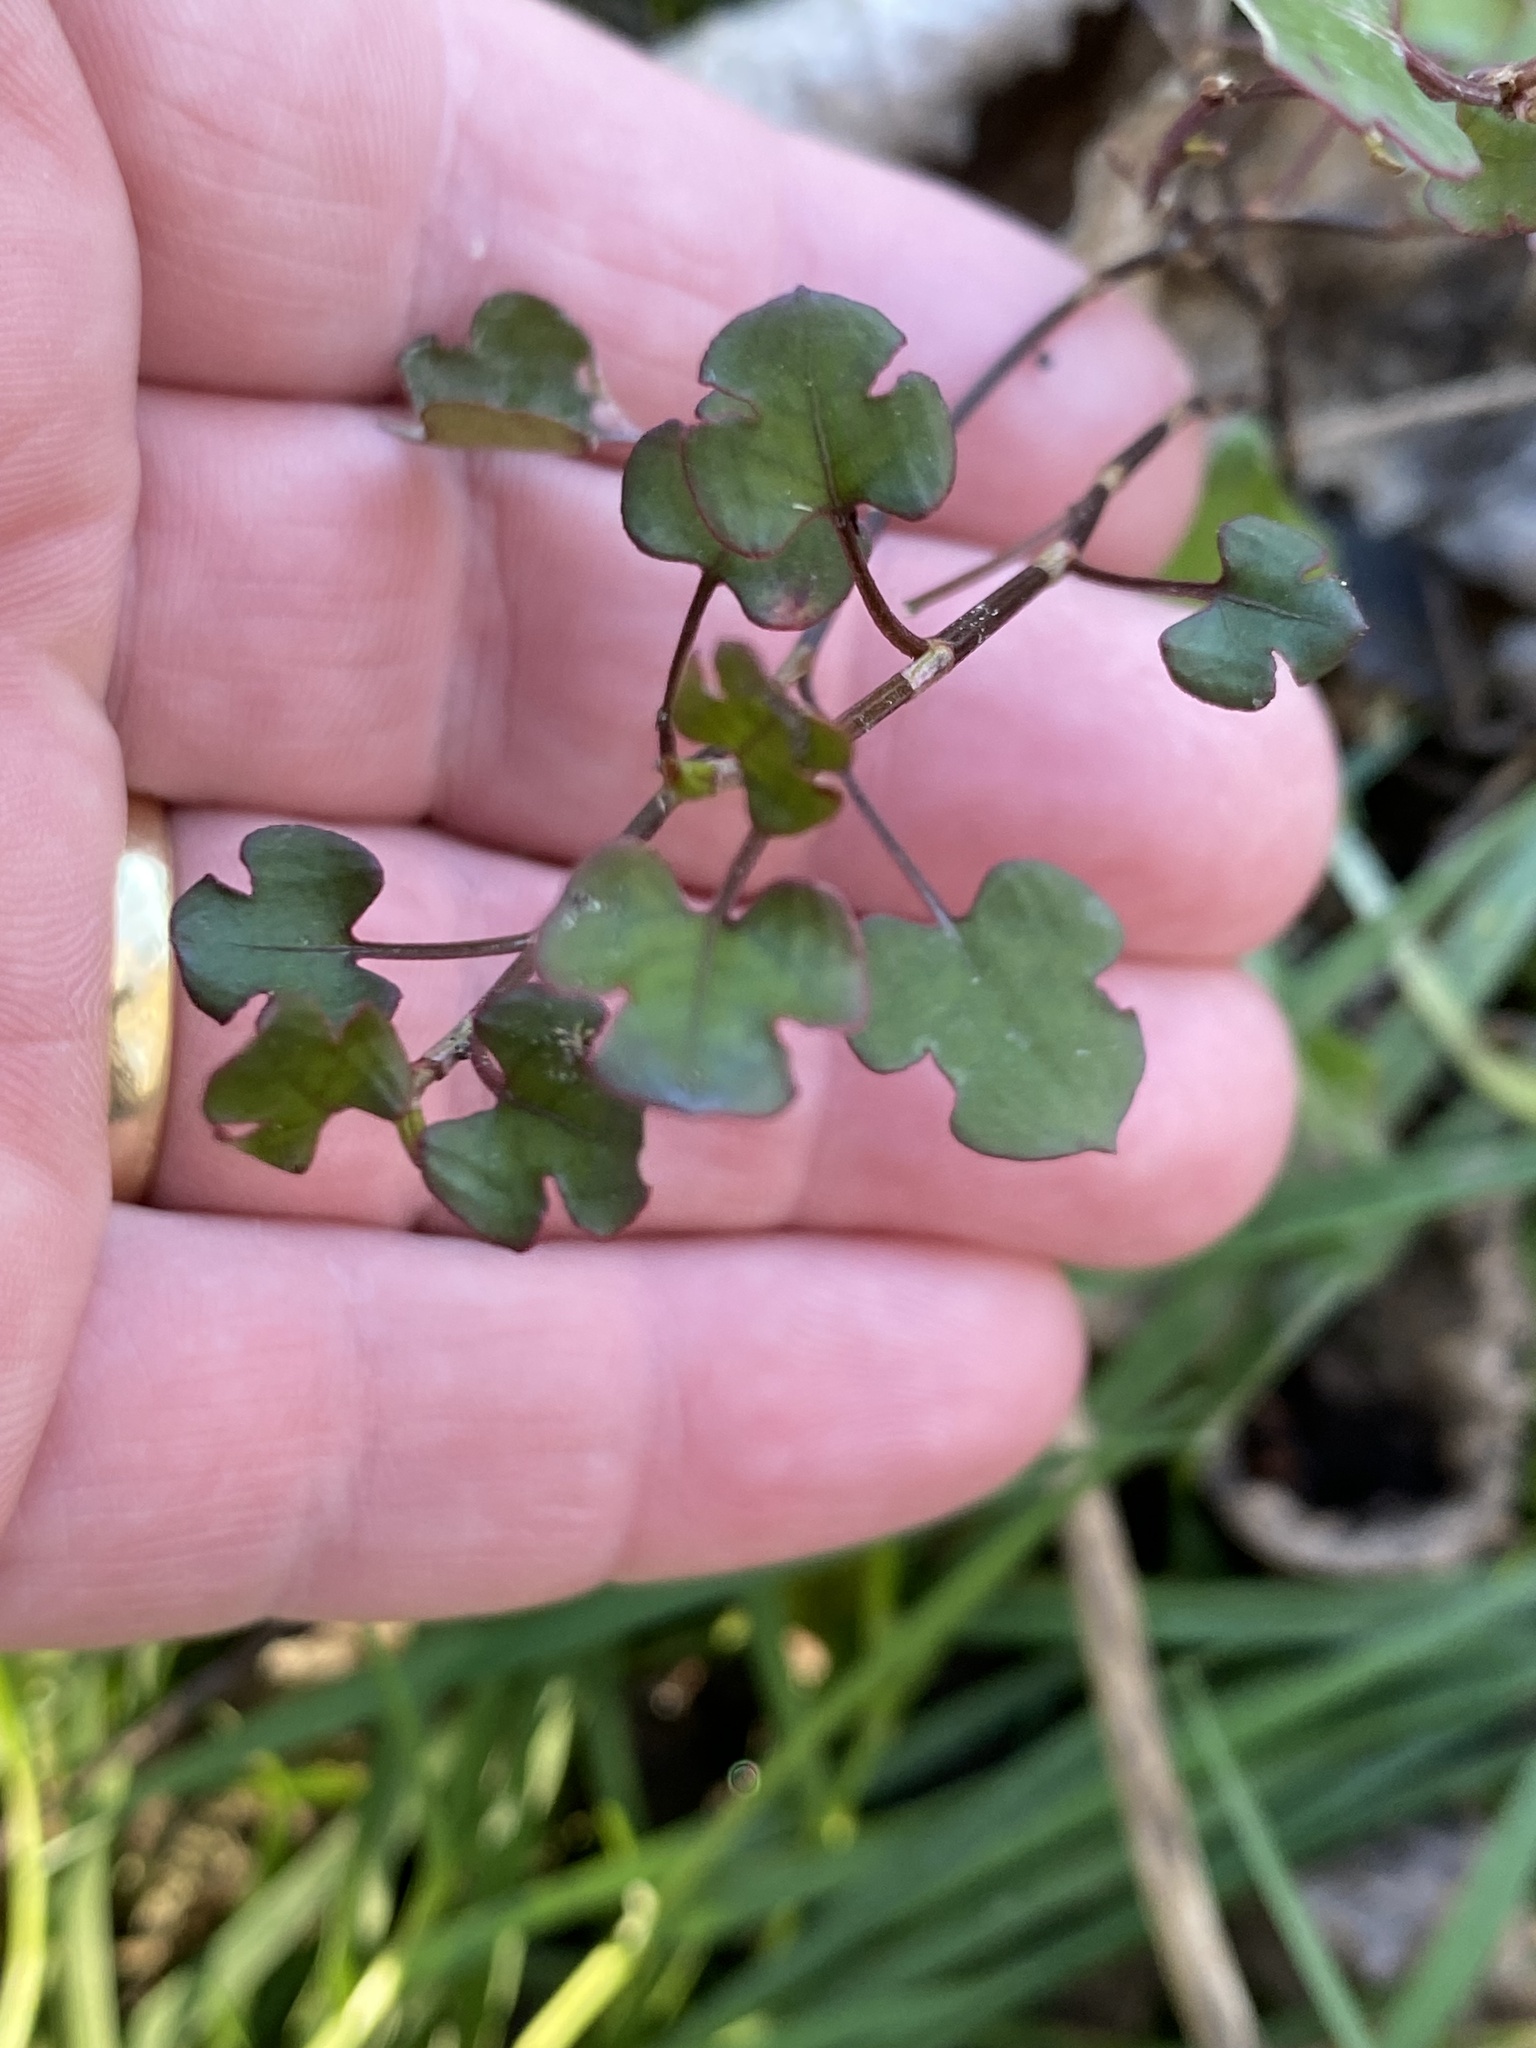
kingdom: Plantae
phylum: Tracheophyta
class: Magnoliopsida
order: Caryophyllales
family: Polygonaceae
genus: Muehlenbeckia
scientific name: Muehlenbeckia australis
